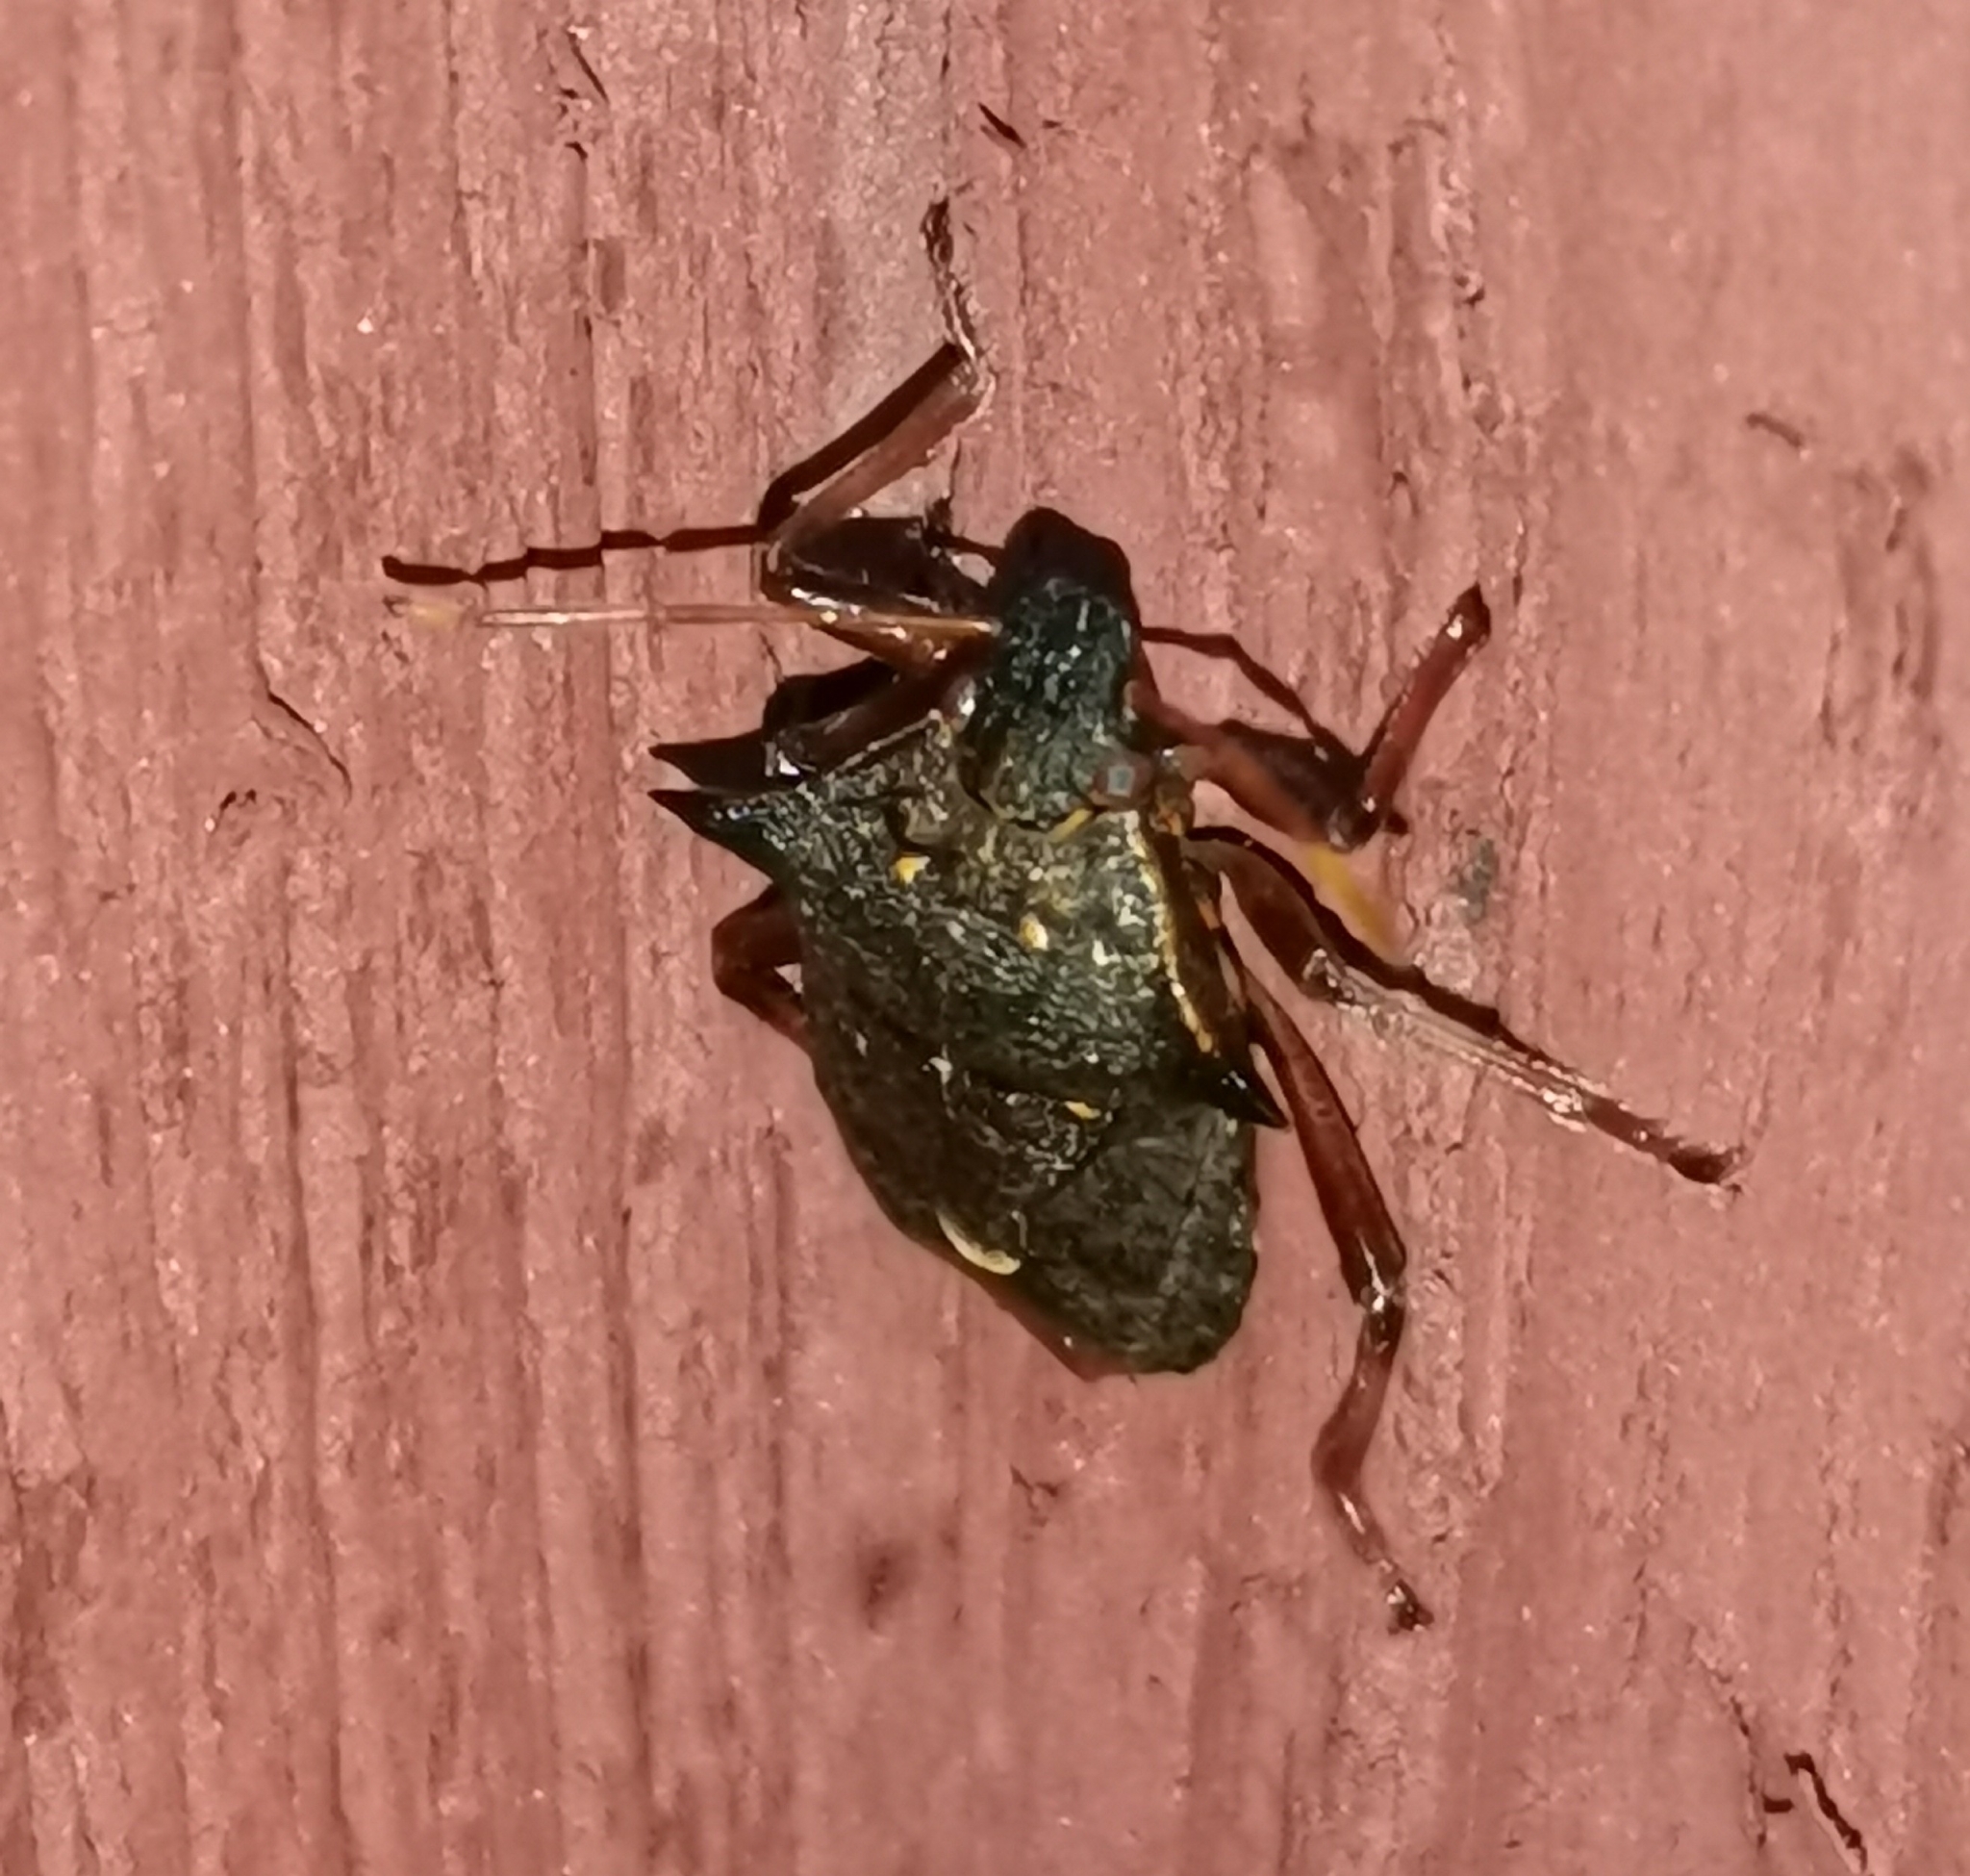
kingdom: Animalia
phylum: Arthropoda
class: Insecta
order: Hemiptera
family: Pentatomidae
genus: Picromerus
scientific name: Picromerus bidens
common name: Spiked shieldbug
